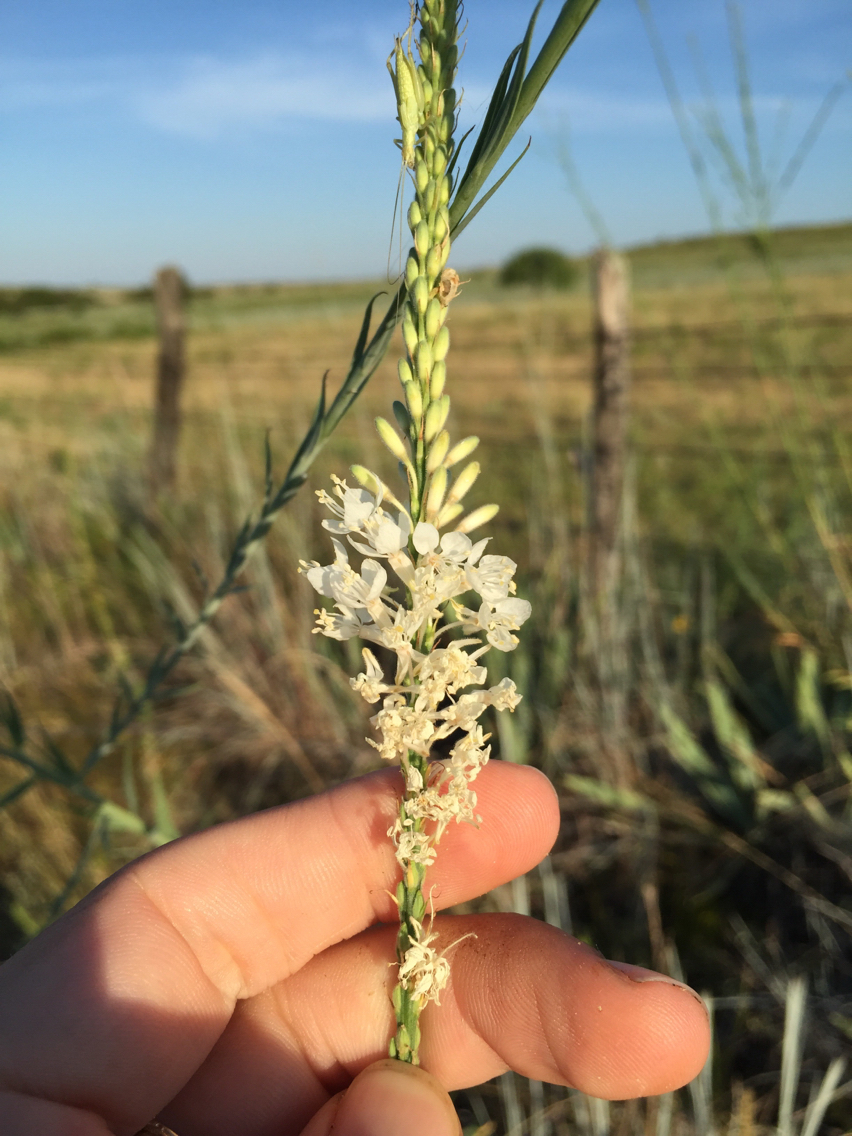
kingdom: Plantae
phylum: Tracheophyta
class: Magnoliopsida
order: Myrtales
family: Onagraceae
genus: Oenothera
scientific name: Oenothera glaucifolia
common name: False gaura
